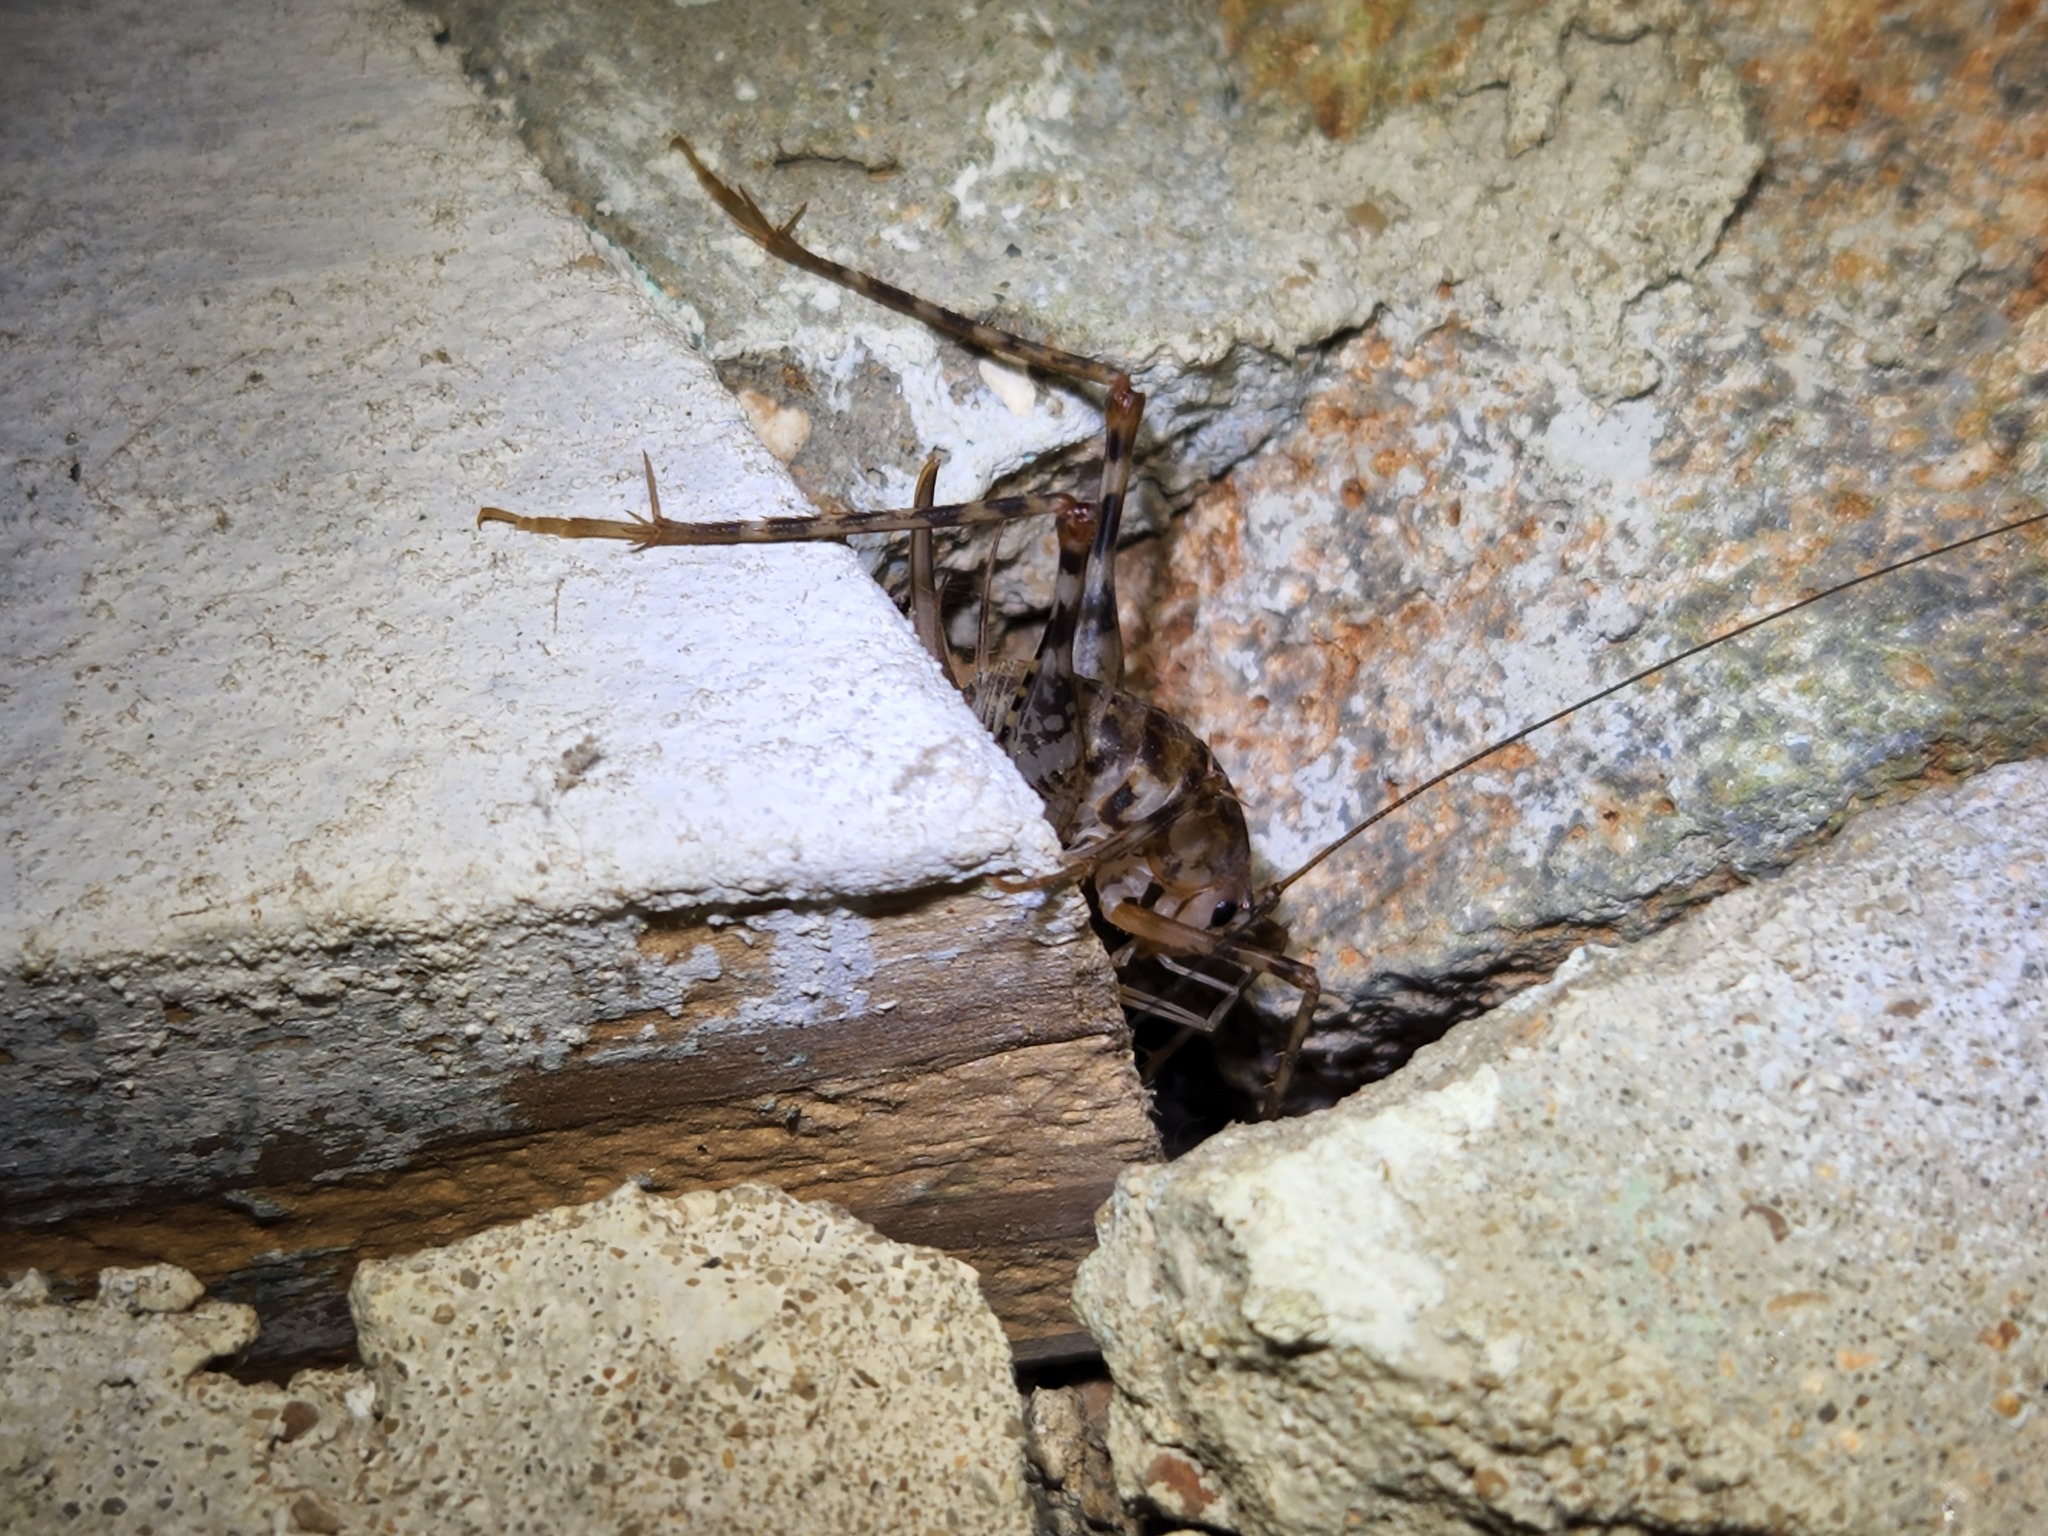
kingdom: Animalia
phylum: Arthropoda
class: Insecta
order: Orthoptera
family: Rhaphidophoridae
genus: Tachycines
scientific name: Tachycines asynamorus
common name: Greenhouse camel cricket
